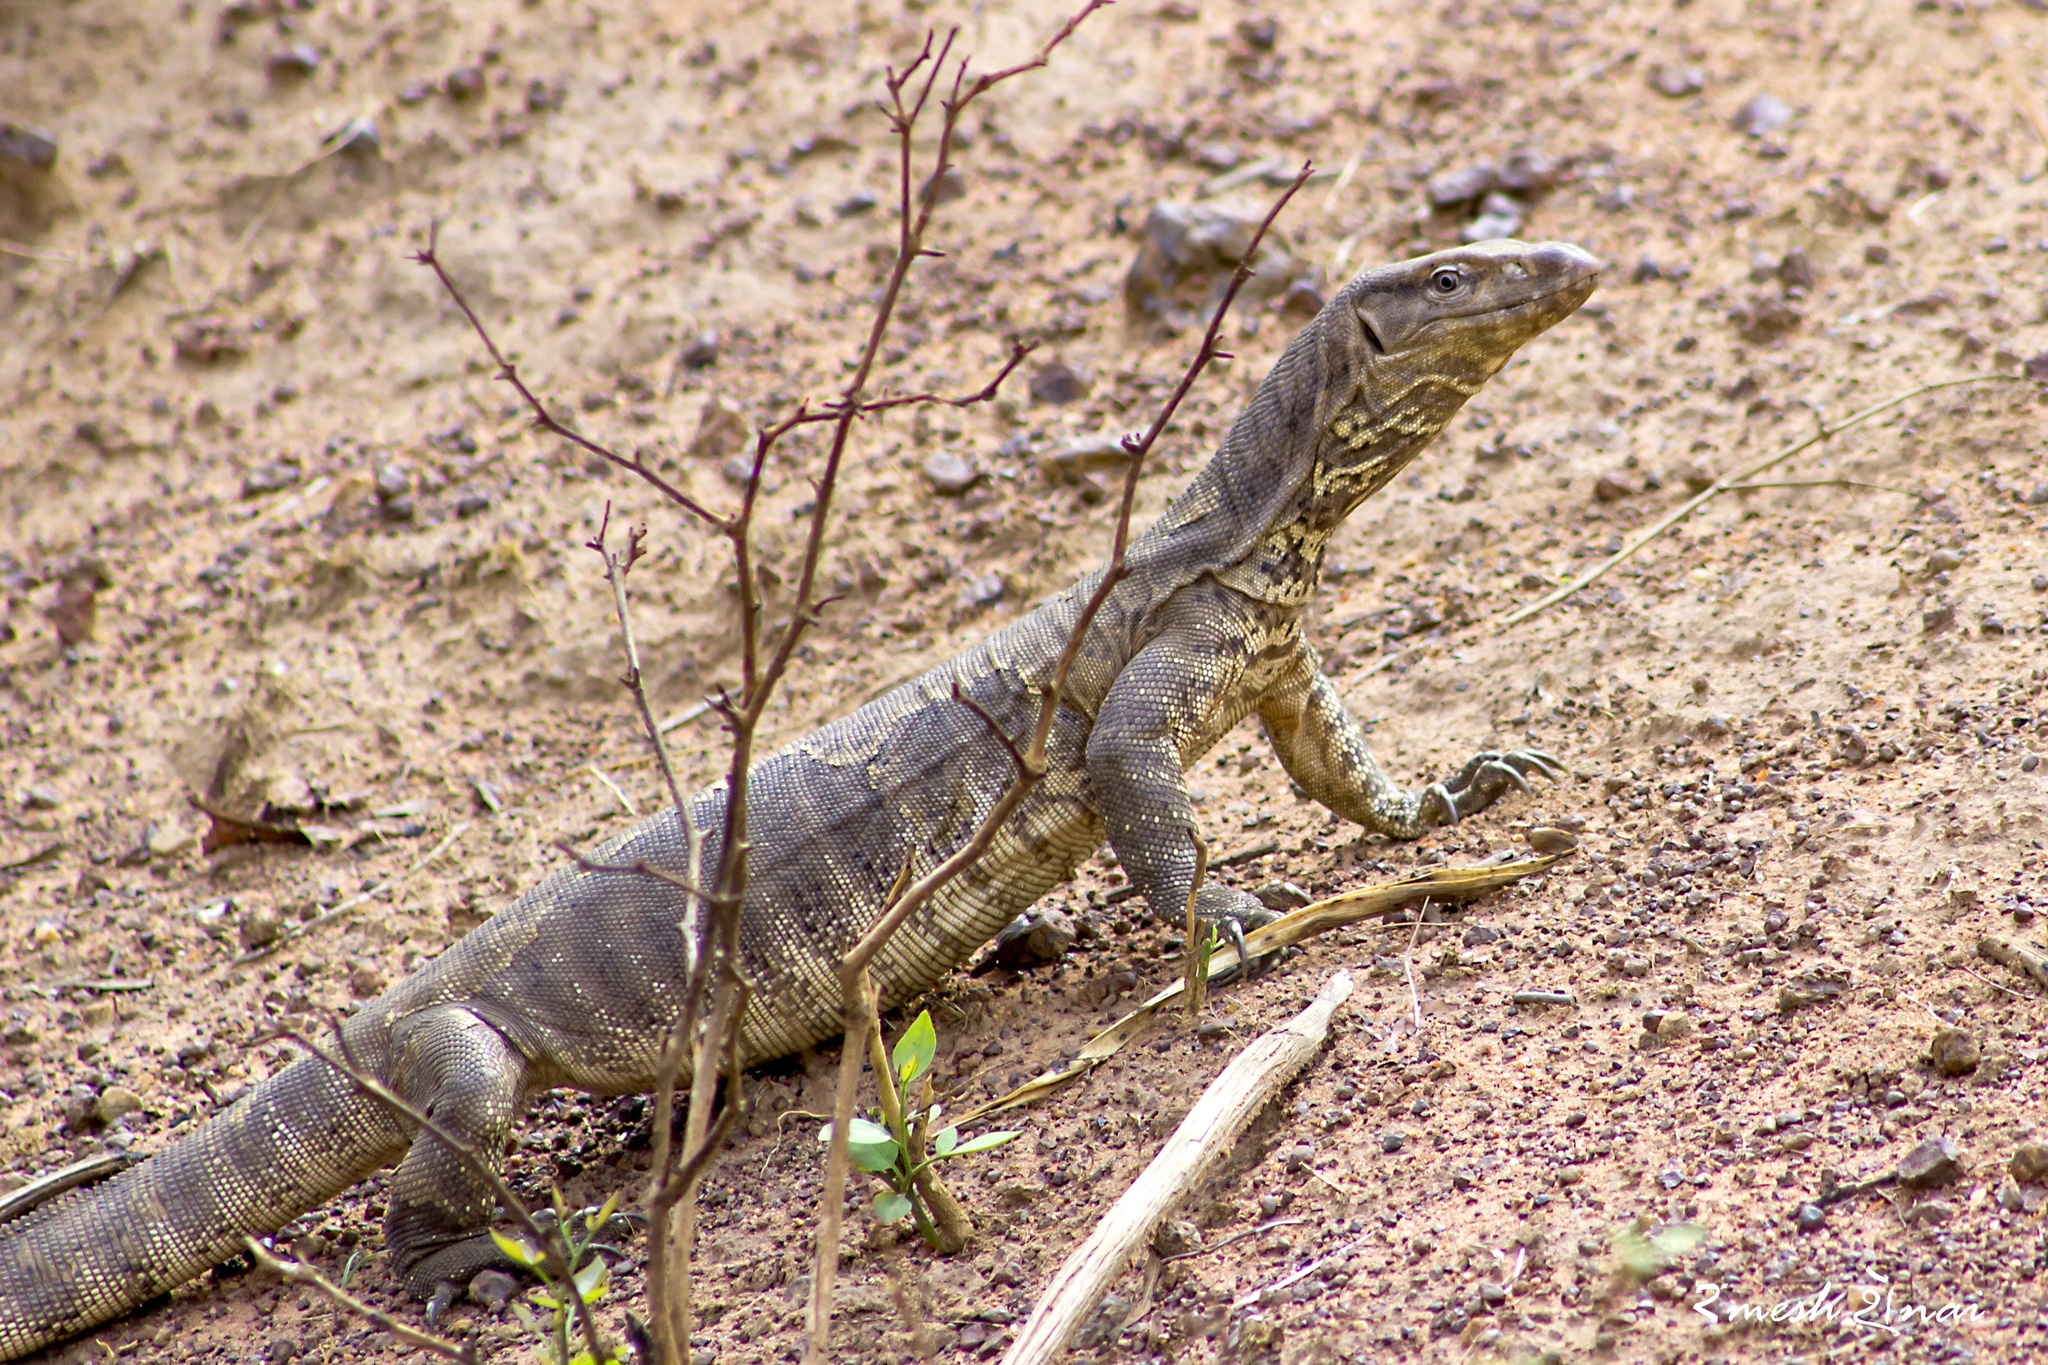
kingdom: Animalia
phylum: Chordata
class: Squamata
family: Varanidae
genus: Varanus
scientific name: Varanus bengalensis
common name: Bengal monitor
